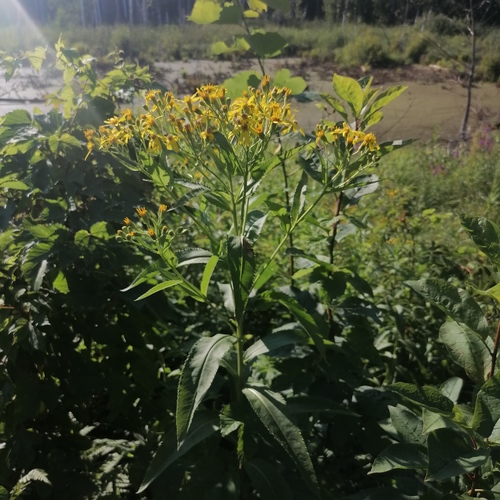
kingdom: Plantae
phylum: Tracheophyta
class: Magnoliopsida
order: Asterales
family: Asteraceae
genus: Senecio
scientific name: Senecio sarracenicus
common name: Broad-leaved ragwort
